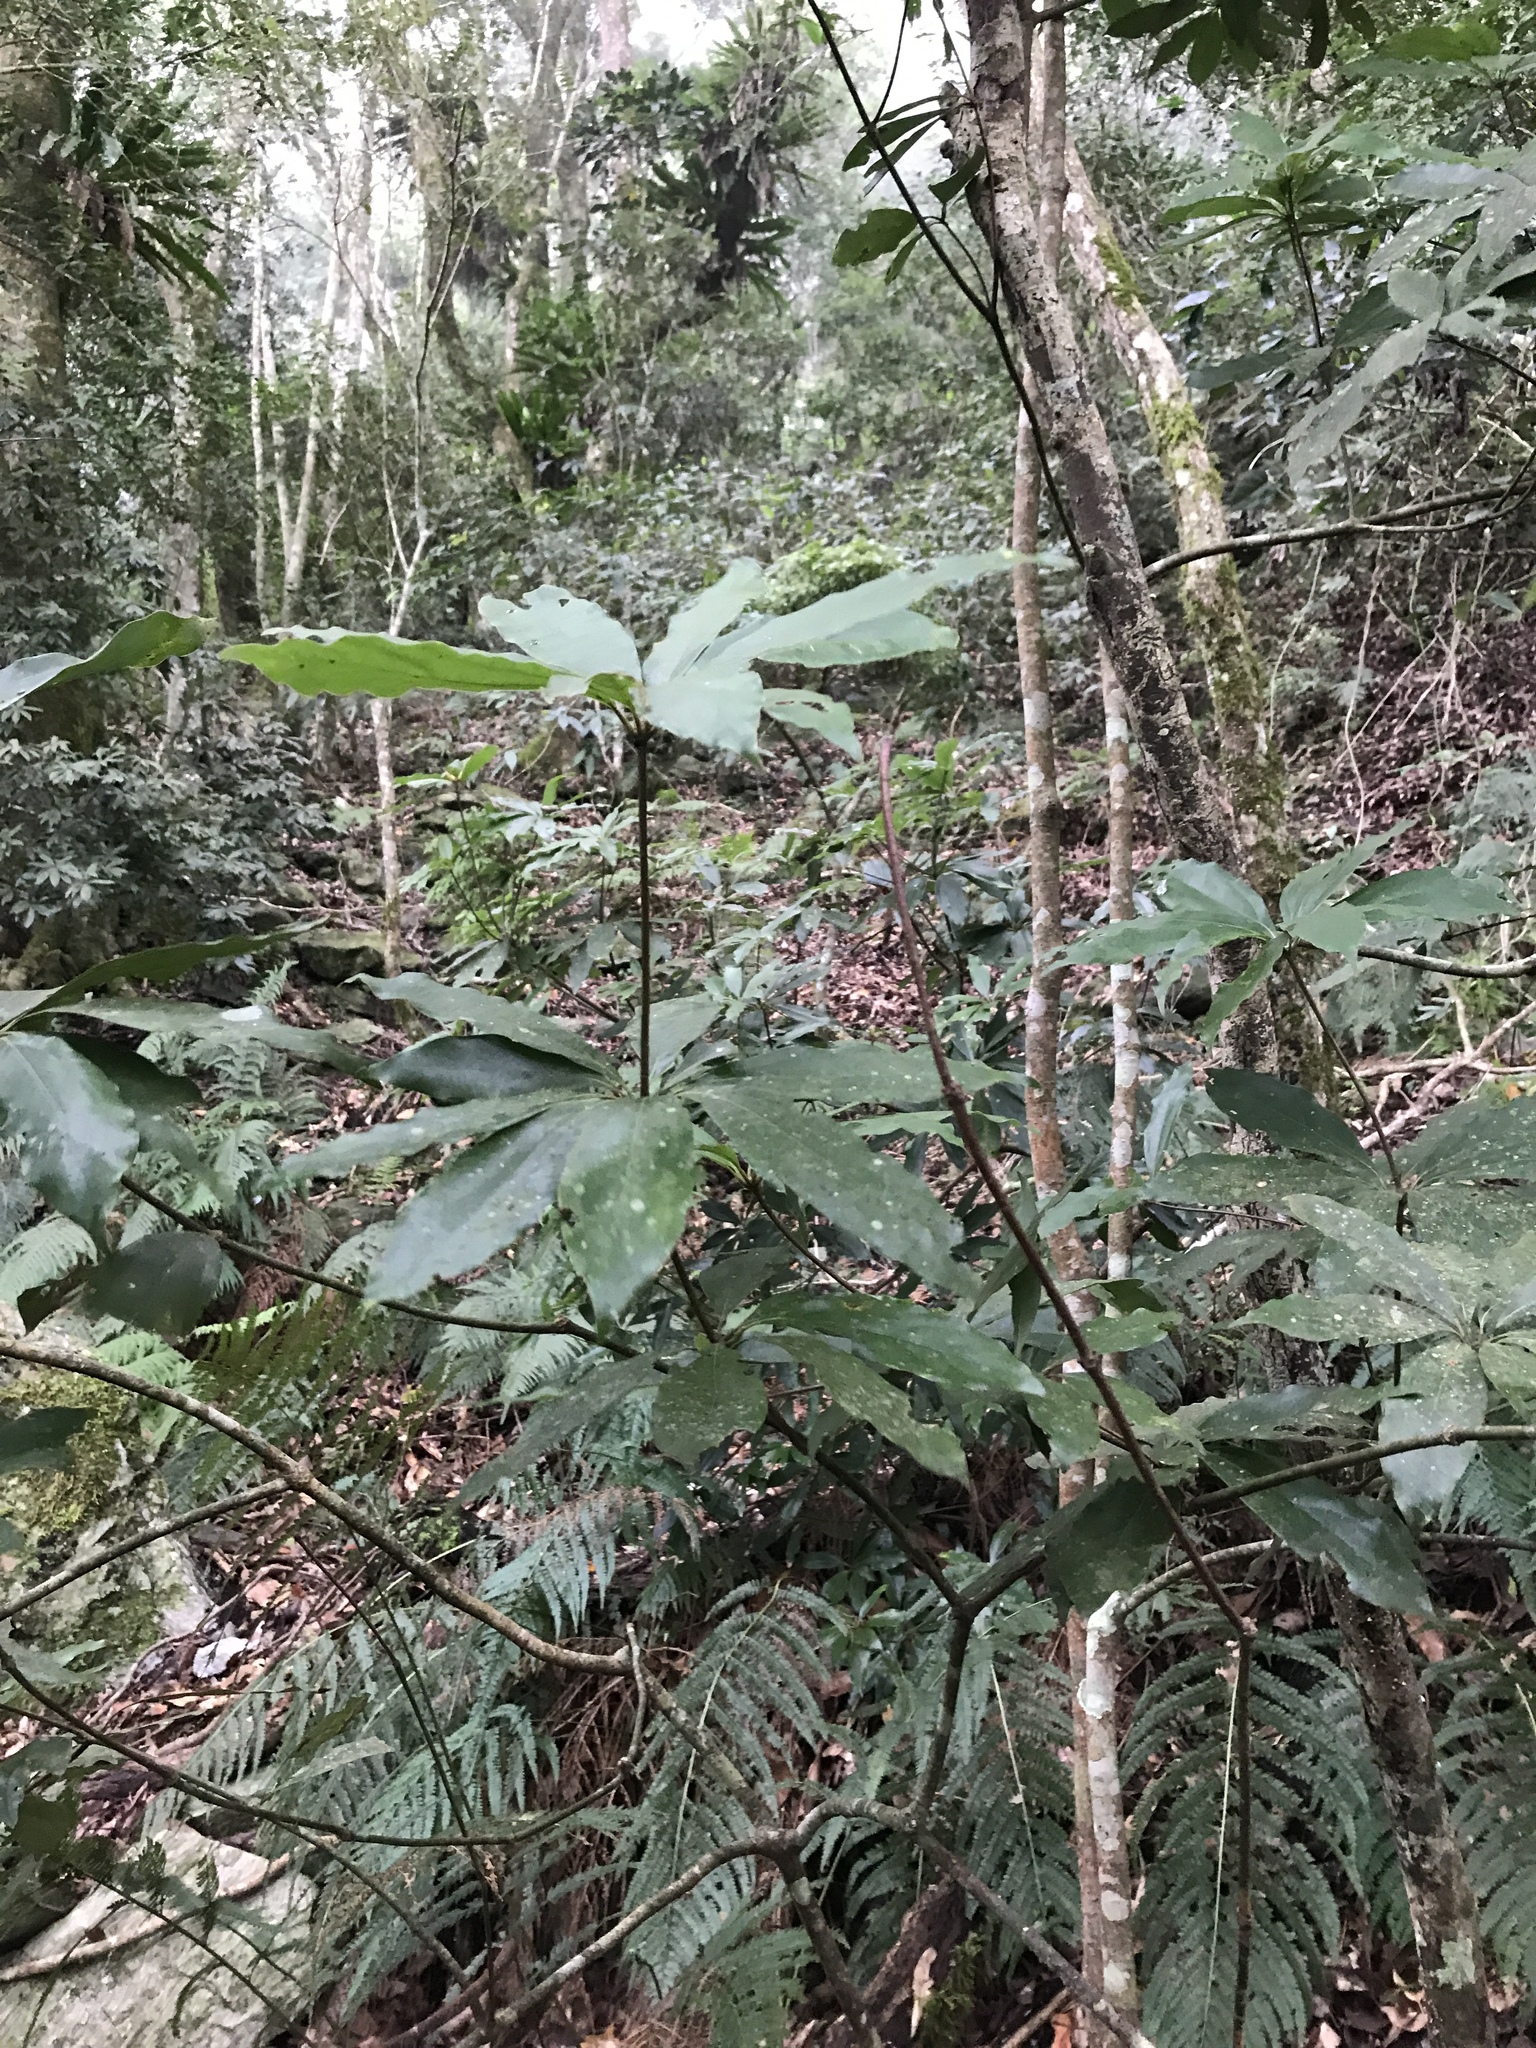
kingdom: Plantae
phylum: Tracheophyta
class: Magnoliopsida
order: Laurales
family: Lauraceae
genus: Neolitsea
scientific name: Neolitsea konishii
